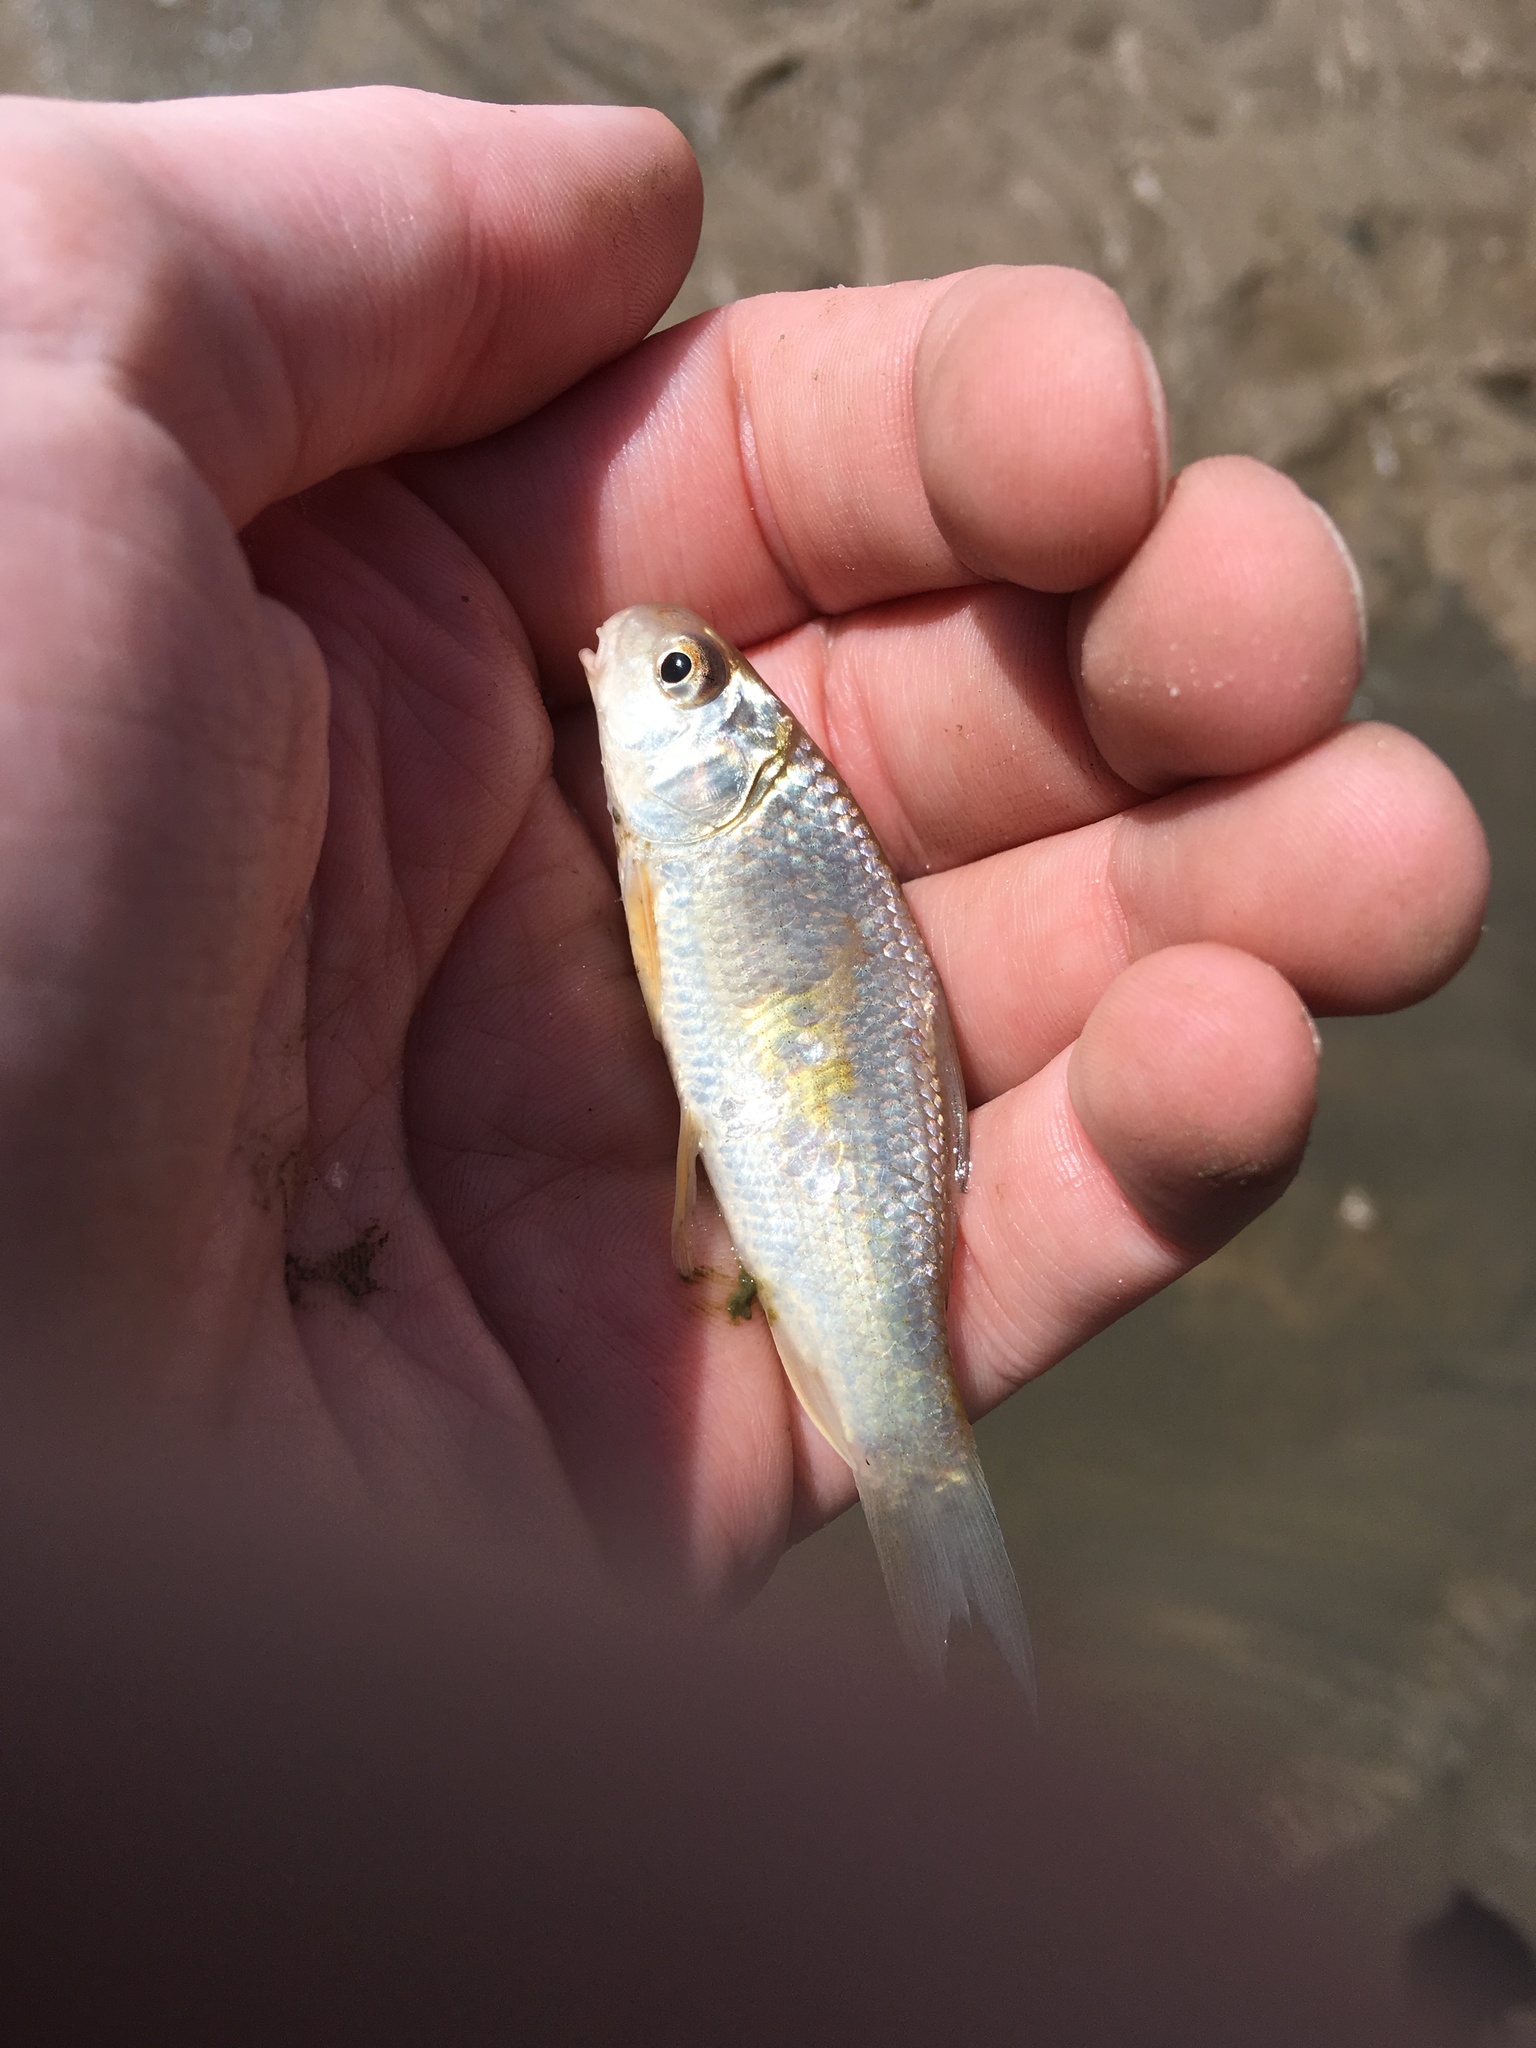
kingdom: Animalia
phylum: Chordata
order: Cypriniformes
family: Catostomidae
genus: Carpiodes
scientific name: Carpiodes carpio
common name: River carpsucker
